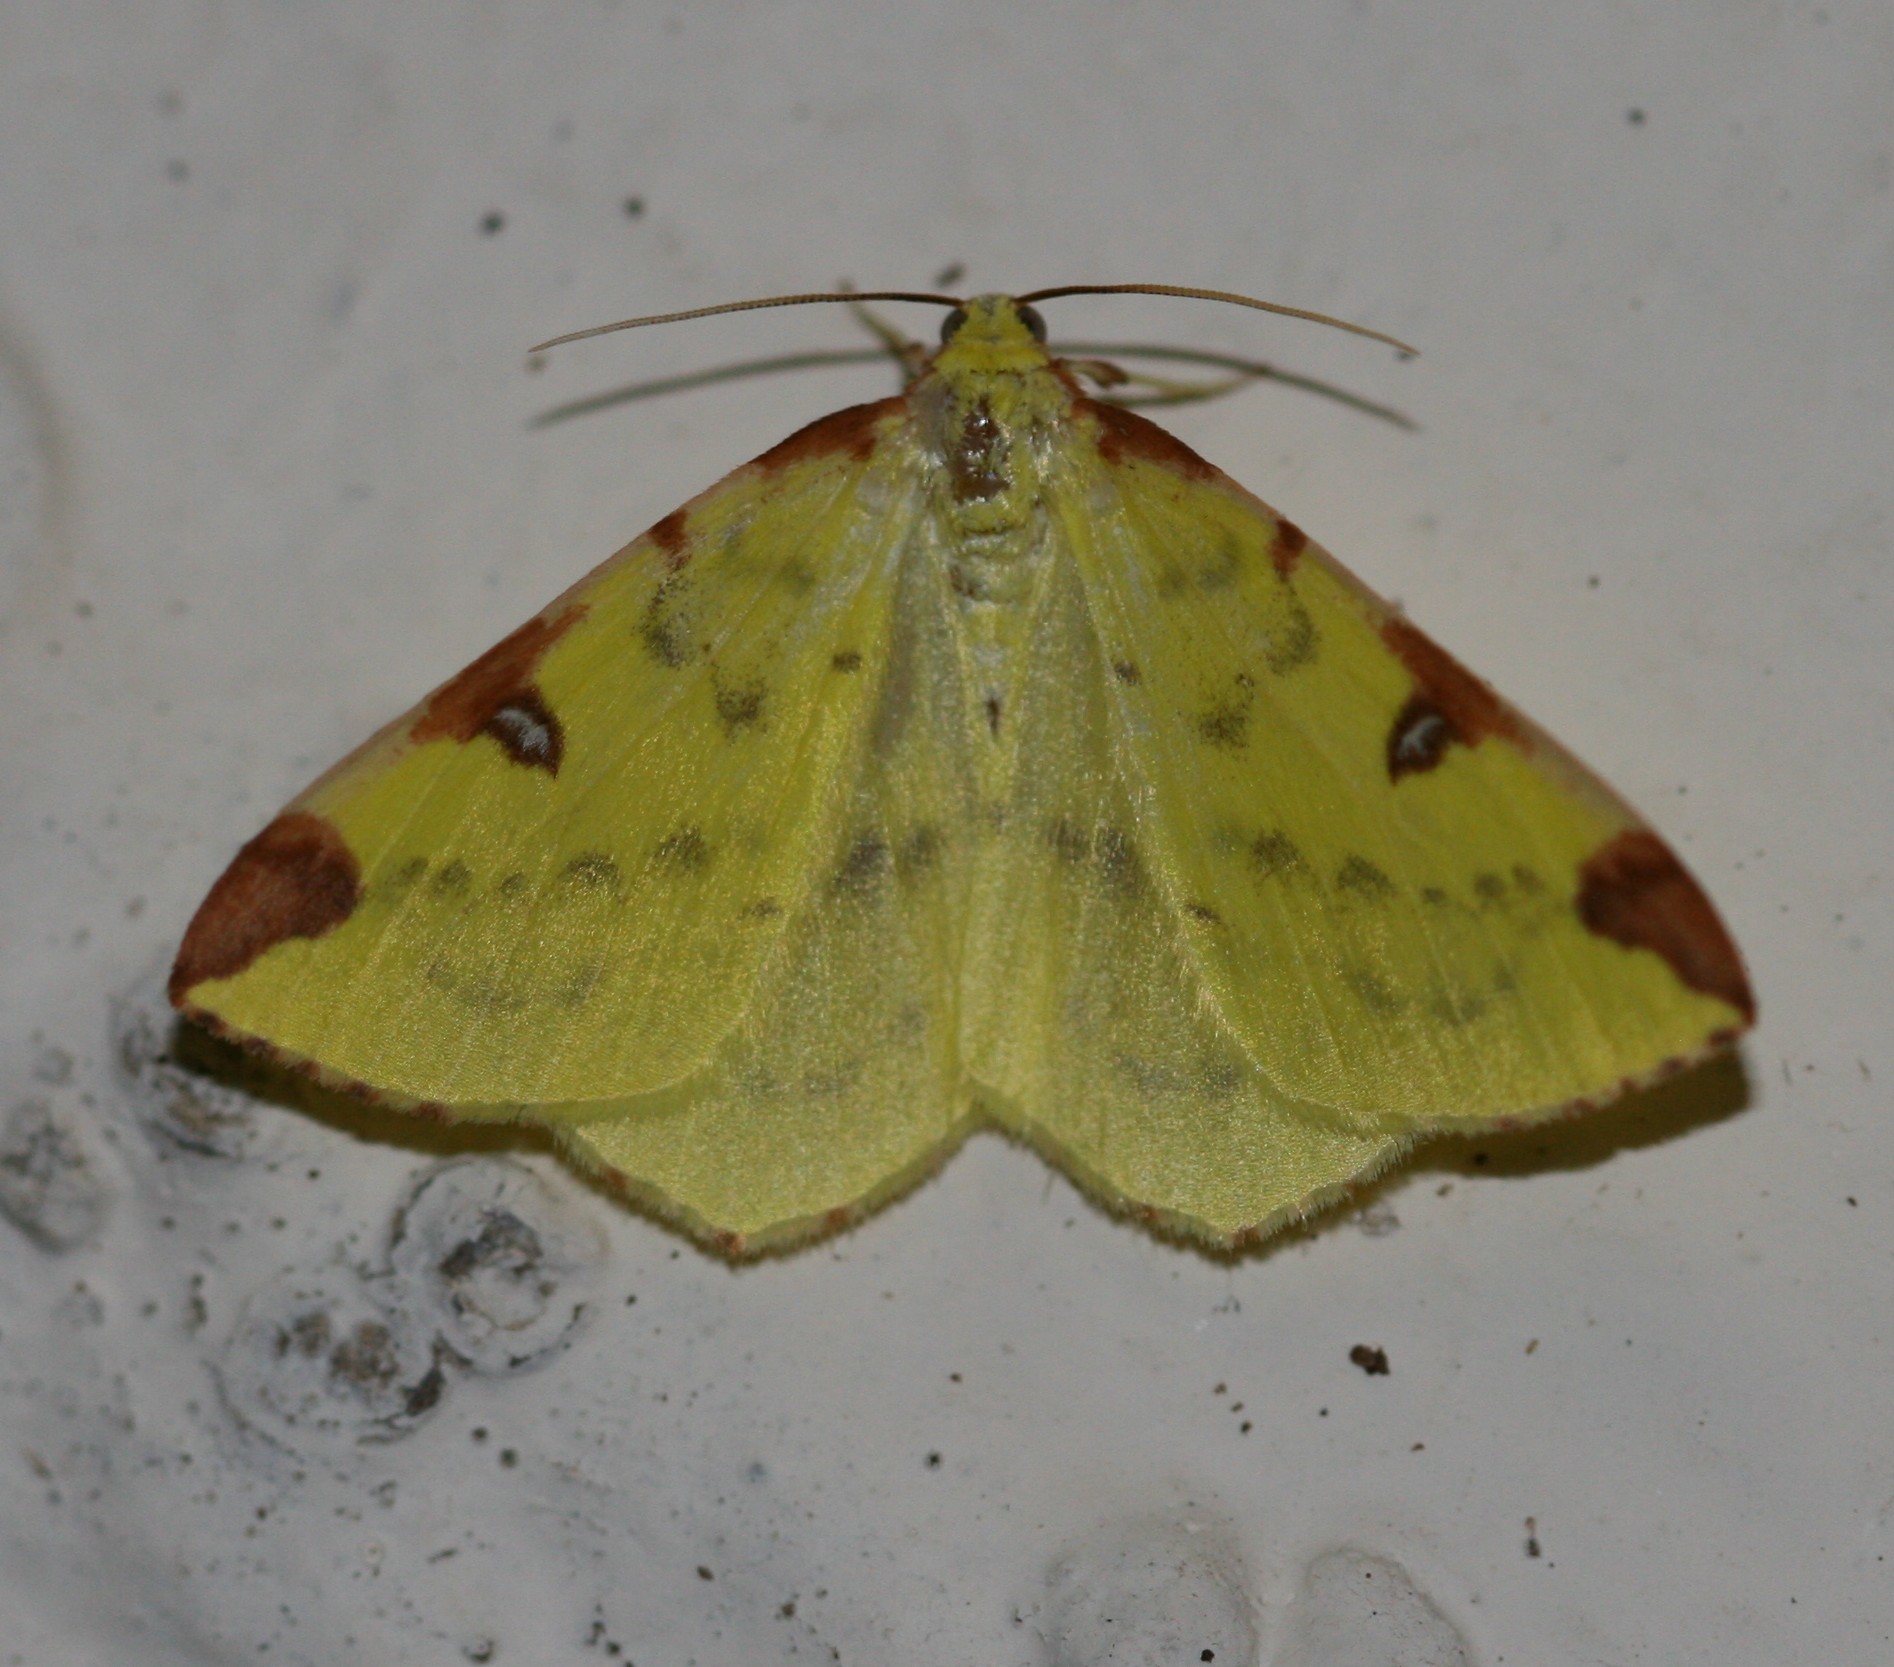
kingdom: Animalia
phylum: Arthropoda
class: Insecta
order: Lepidoptera
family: Geometridae
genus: Opisthograptis
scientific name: Opisthograptis luteolata
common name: Brimstone moth
